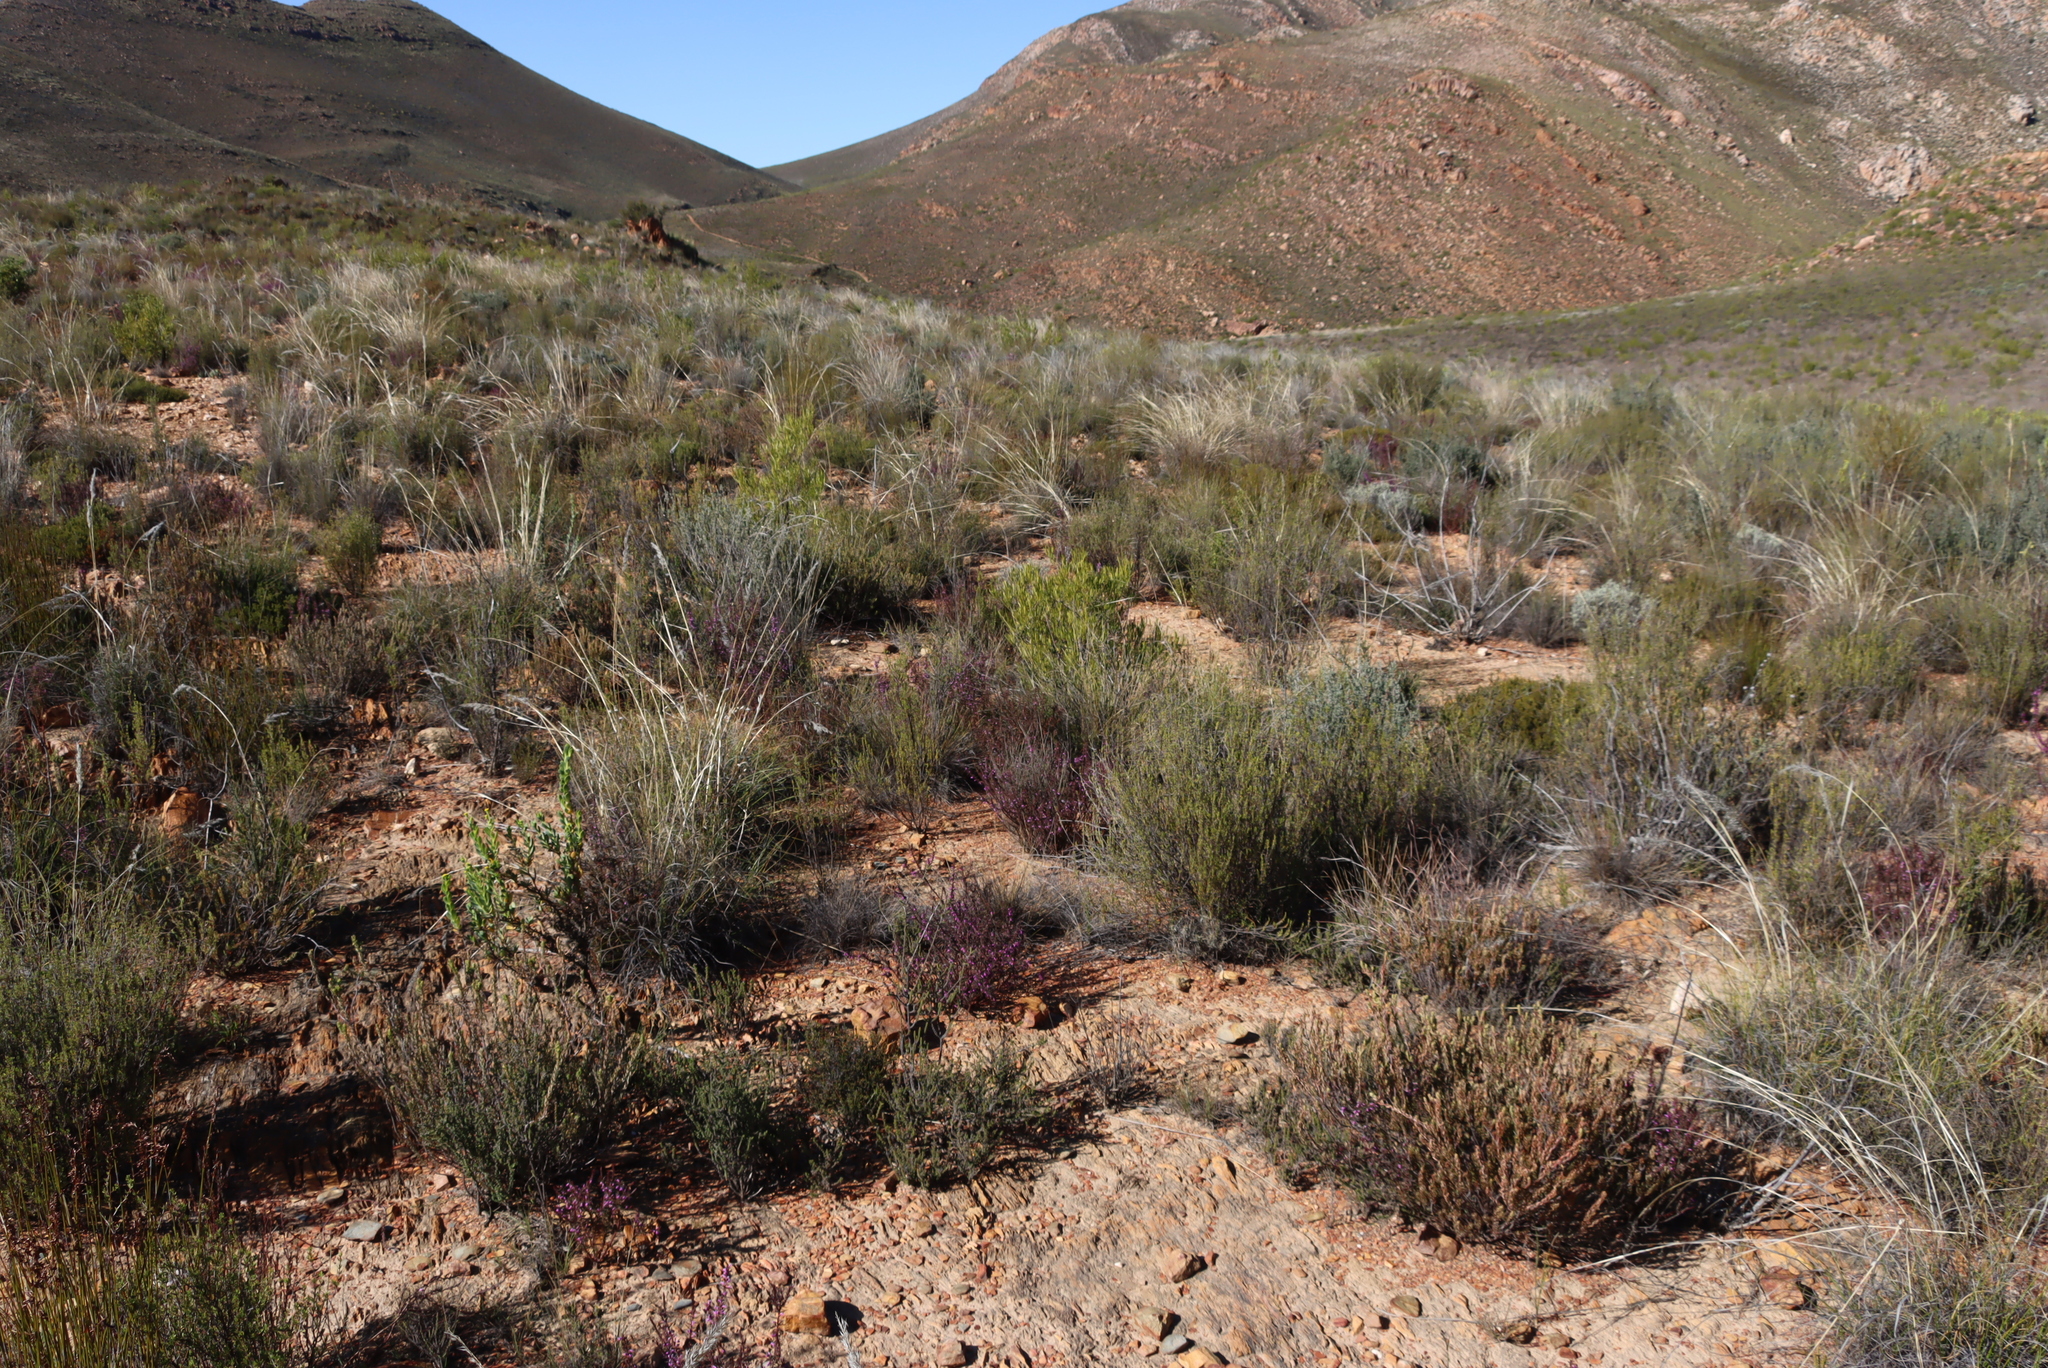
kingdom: Plantae
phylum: Tracheophyta
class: Magnoliopsida
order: Fabales
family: Polygalaceae
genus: Muraltia
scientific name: Muraltia juniperifolia
